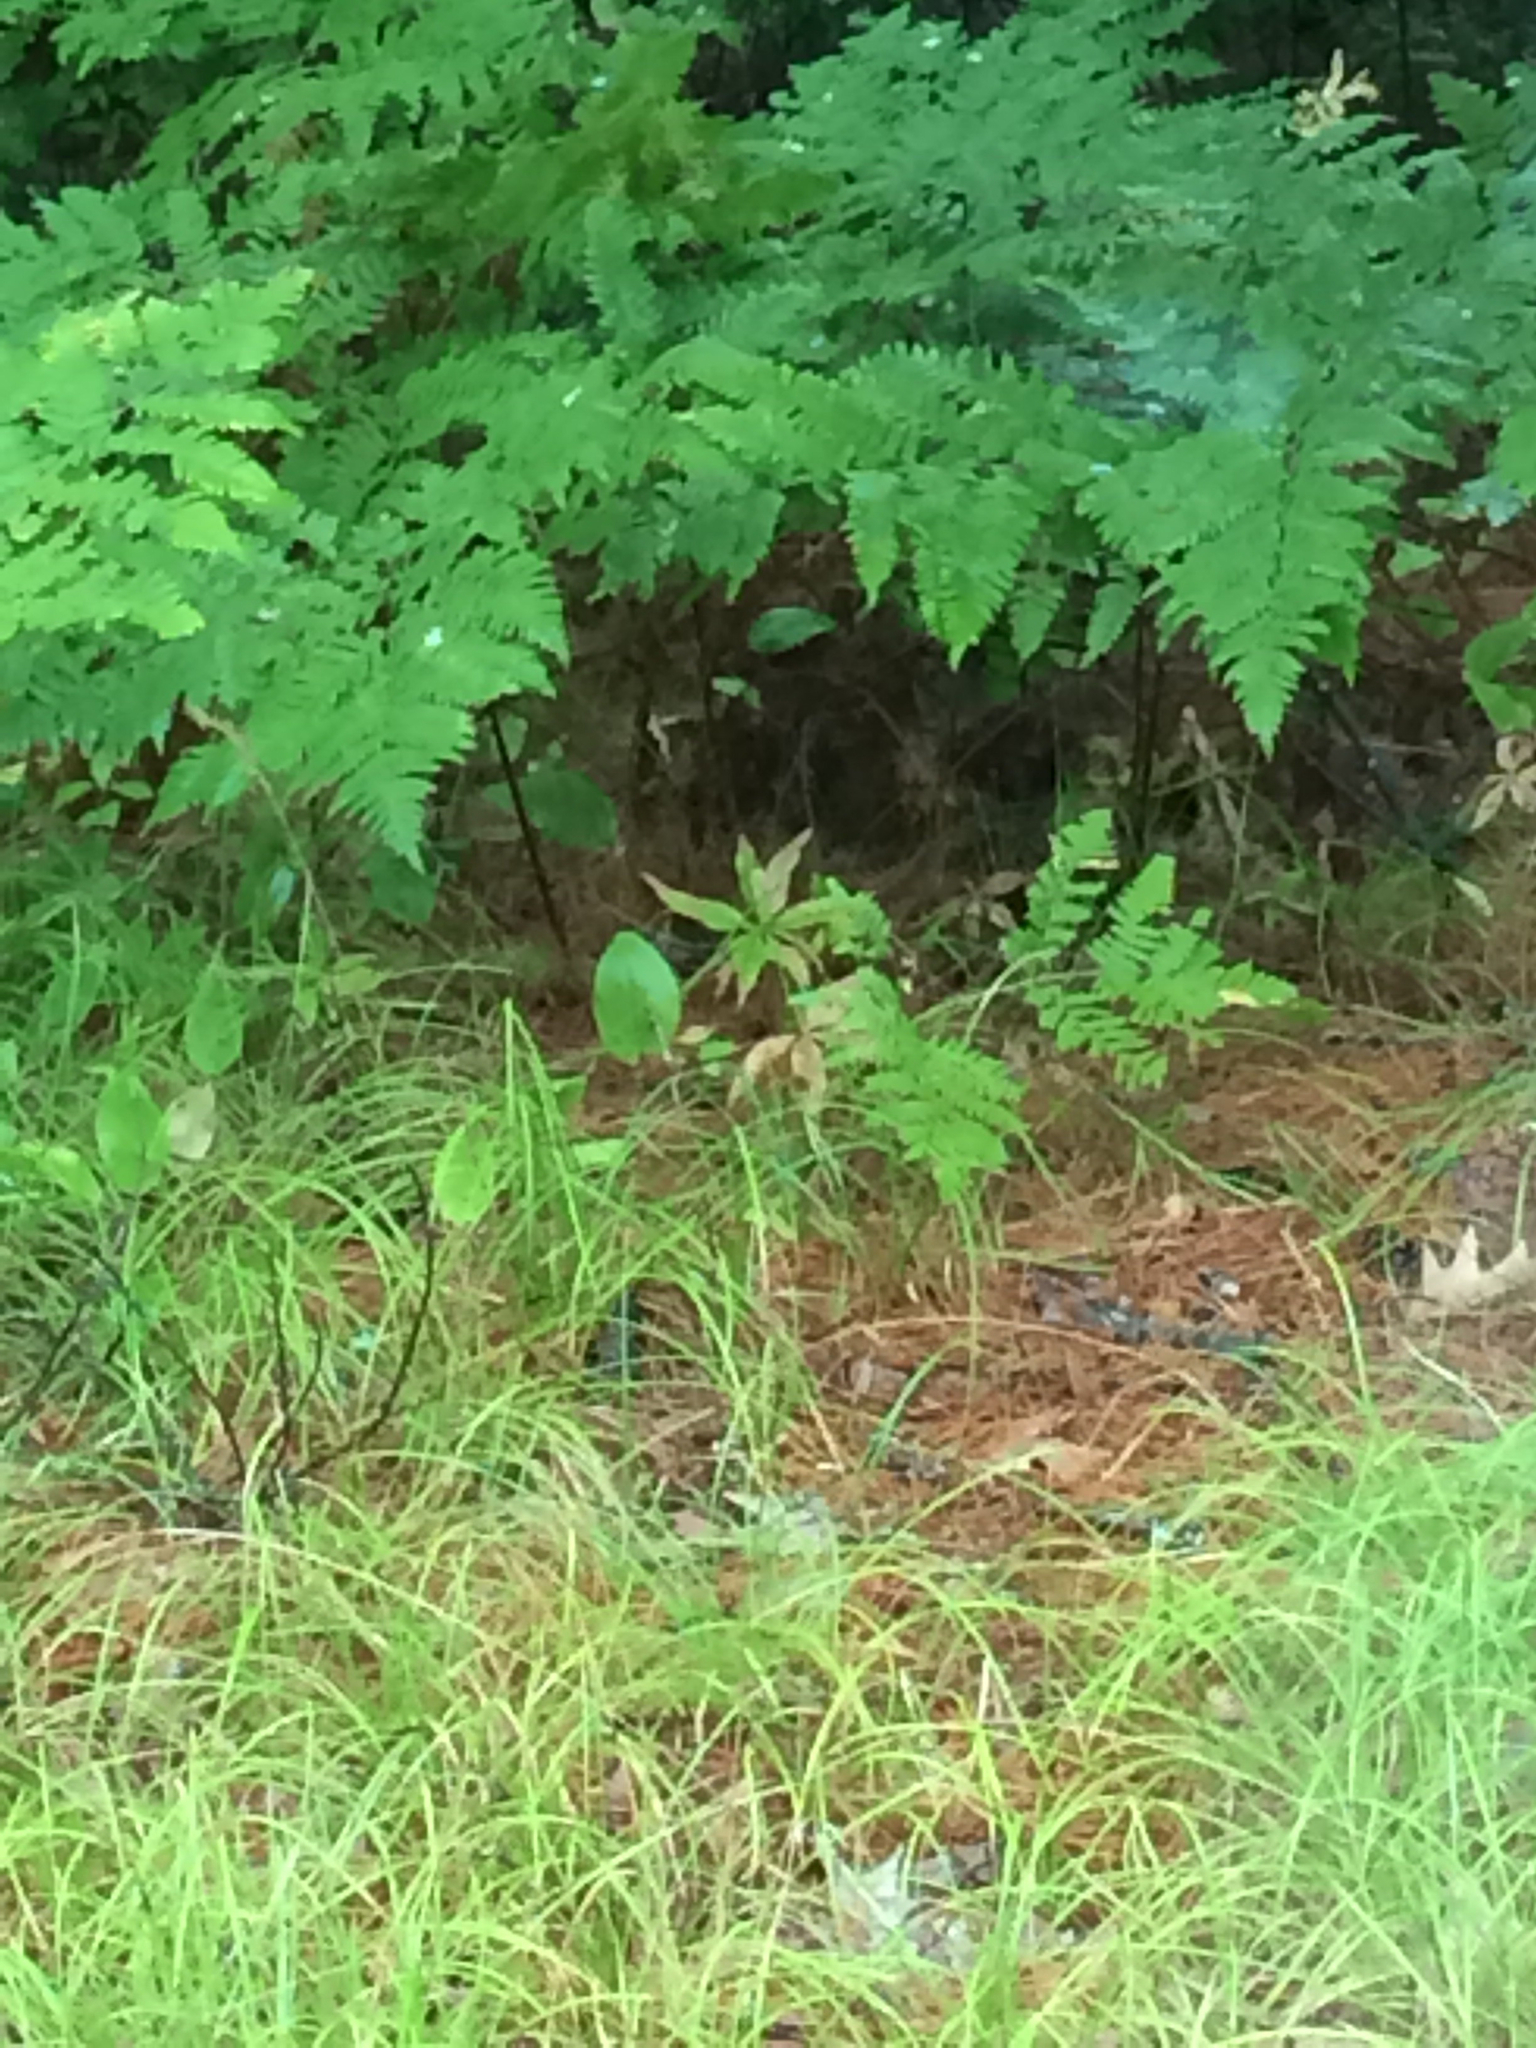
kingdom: Plantae
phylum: Tracheophyta
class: Liliopsida
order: Asparagales
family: Asparagaceae
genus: Maianthemum
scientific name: Maianthemum canadense
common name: False lily-of-the-valley
